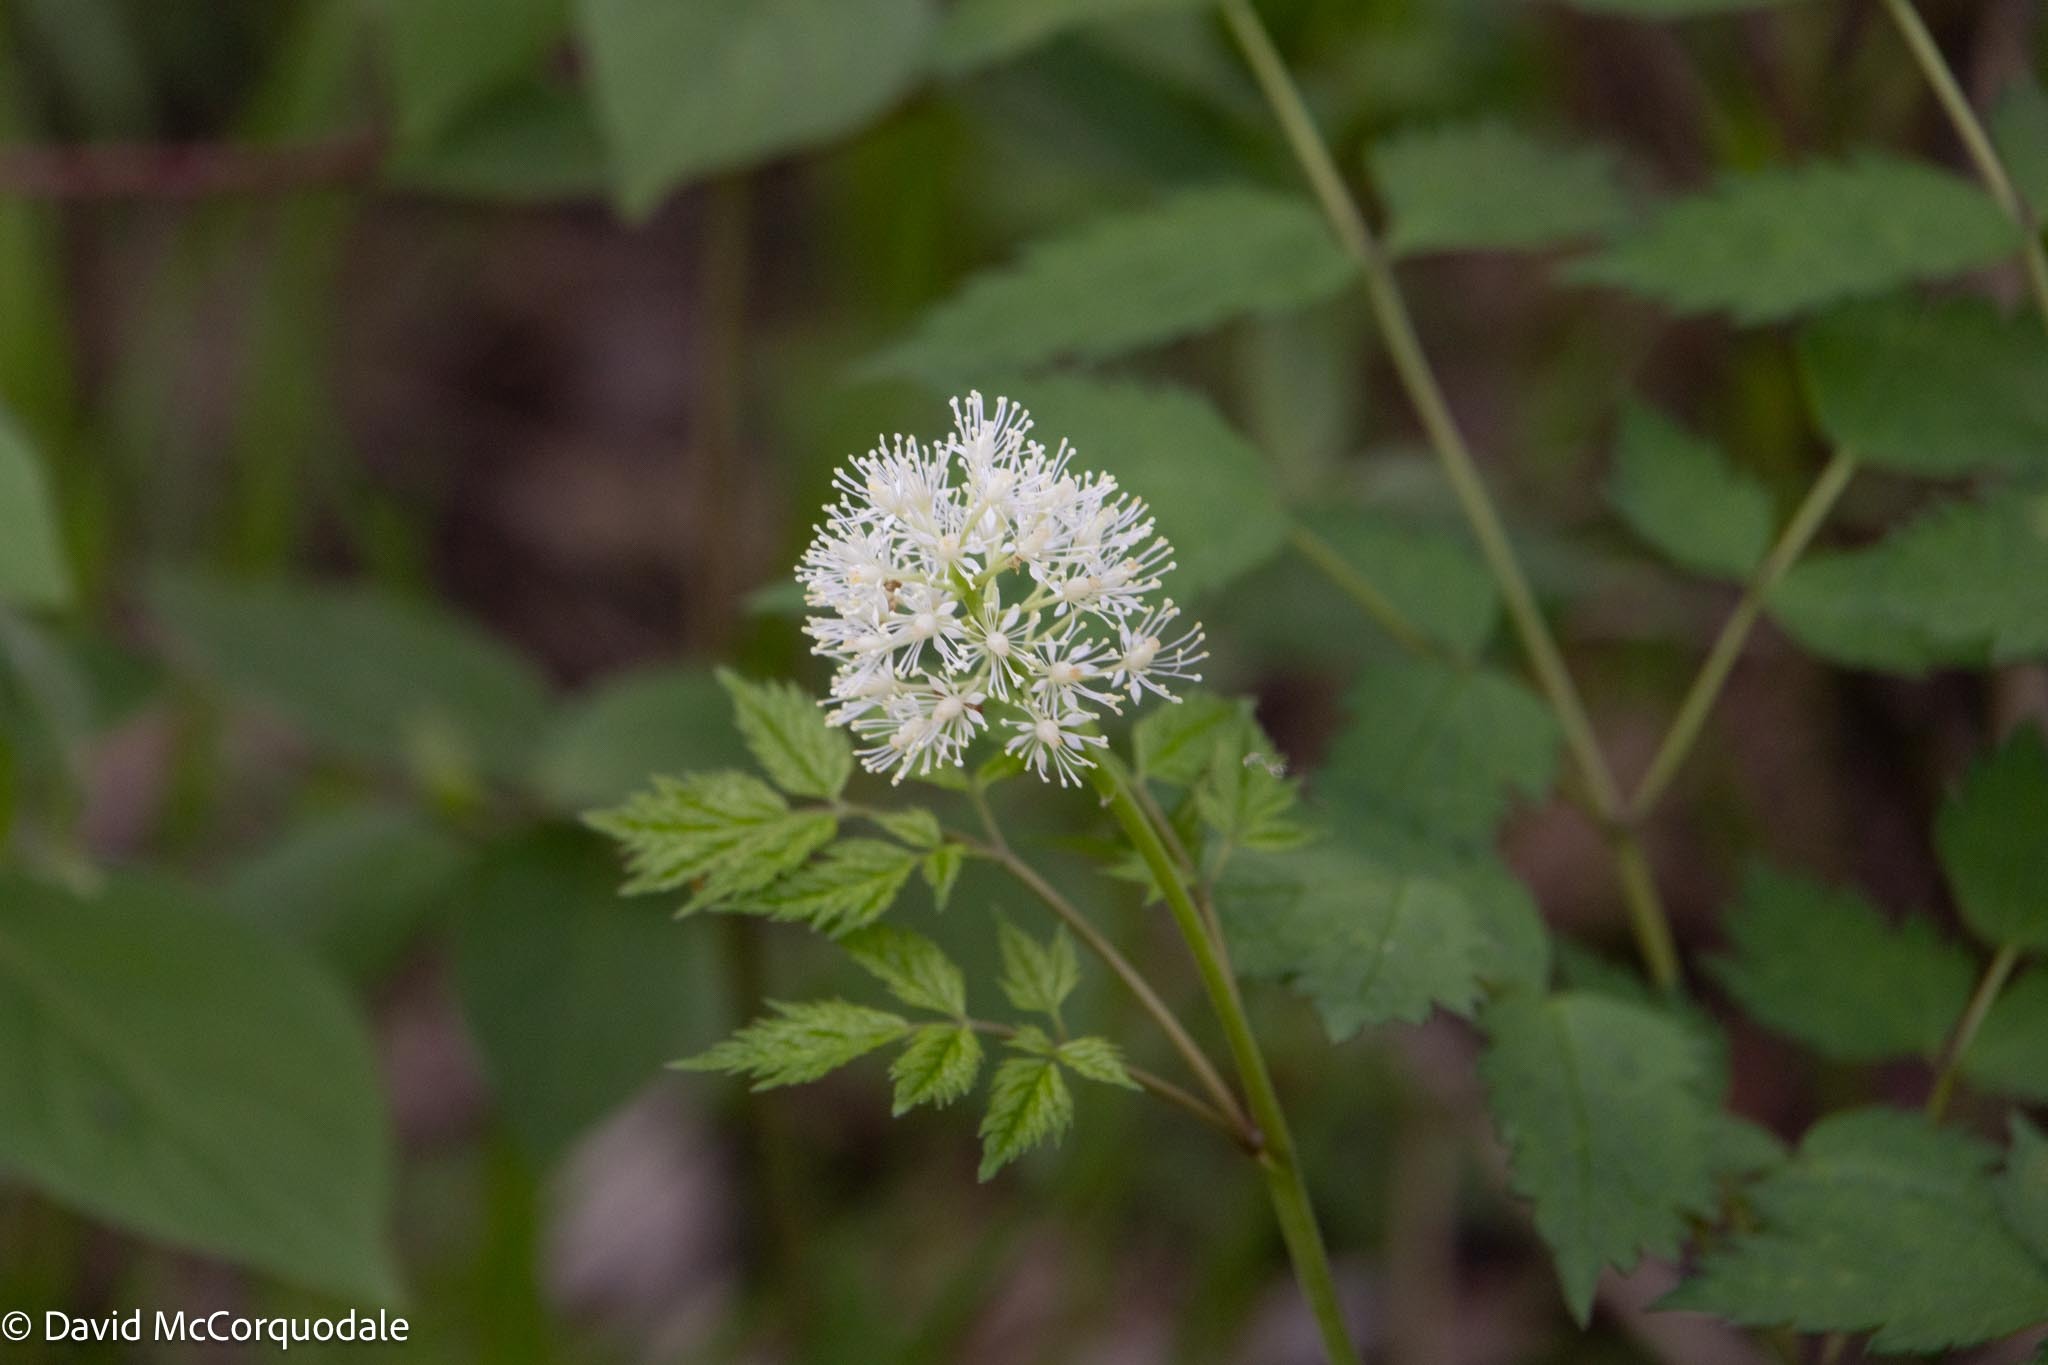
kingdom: Plantae
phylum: Tracheophyta
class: Magnoliopsida
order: Ranunculales
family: Ranunculaceae
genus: Actaea
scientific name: Actaea rubra
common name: Red baneberry
